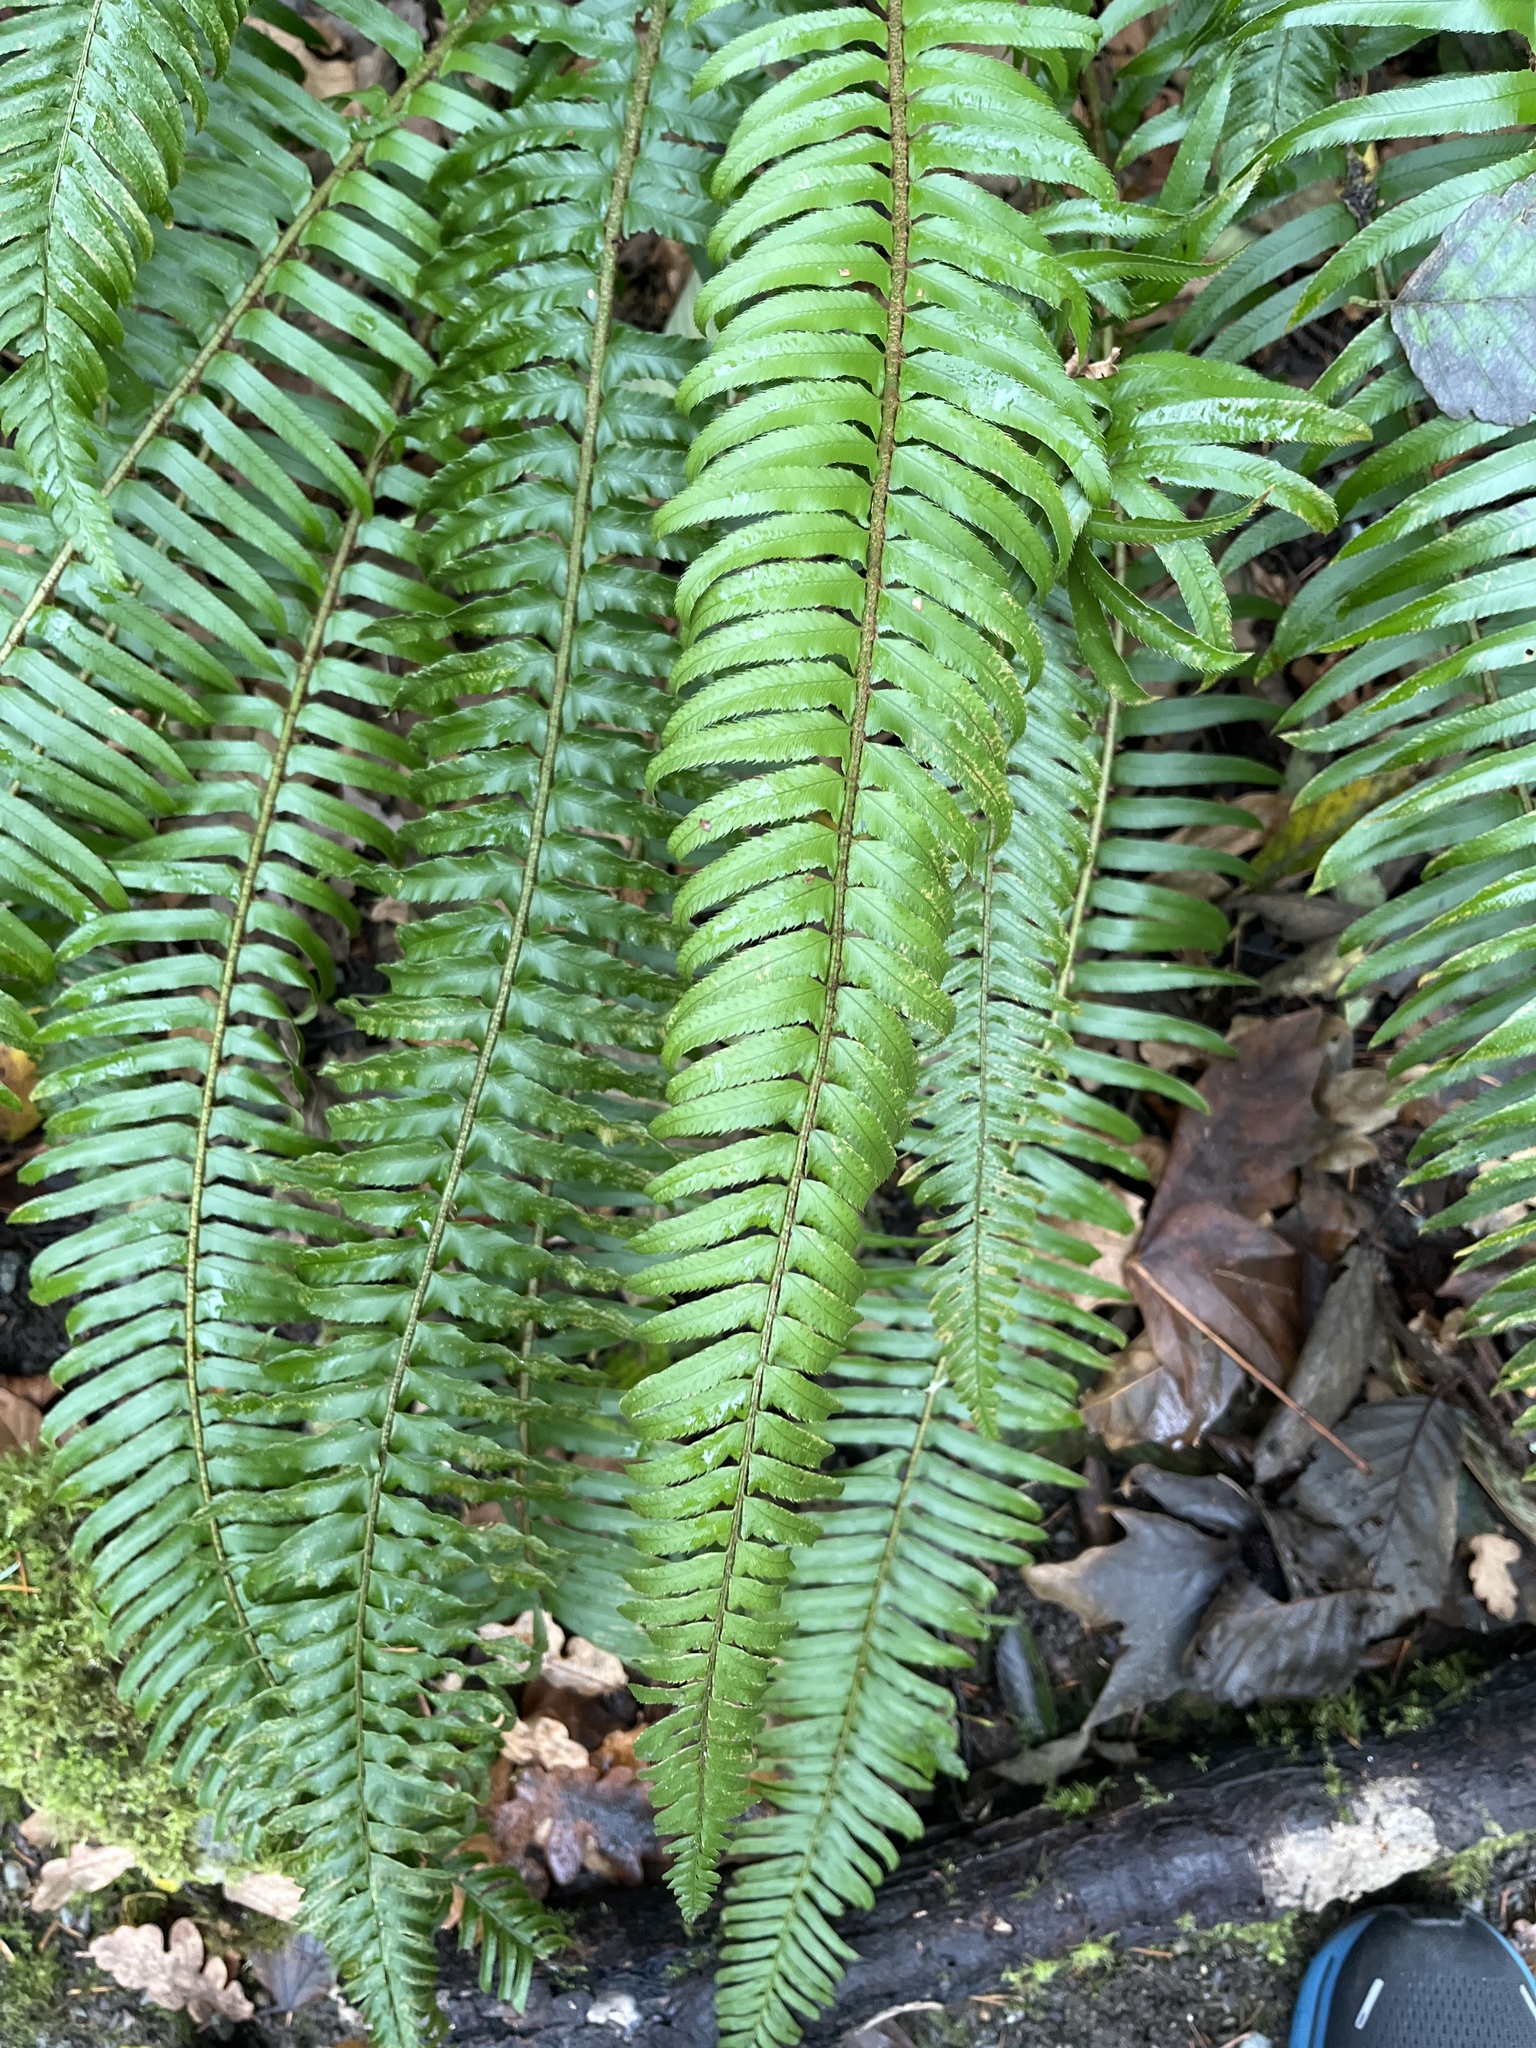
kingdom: Plantae
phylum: Tracheophyta
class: Polypodiopsida
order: Polypodiales
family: Dryopteridaceae
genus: Polystichum
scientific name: Polystichum munitum
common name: Western sword-fern
